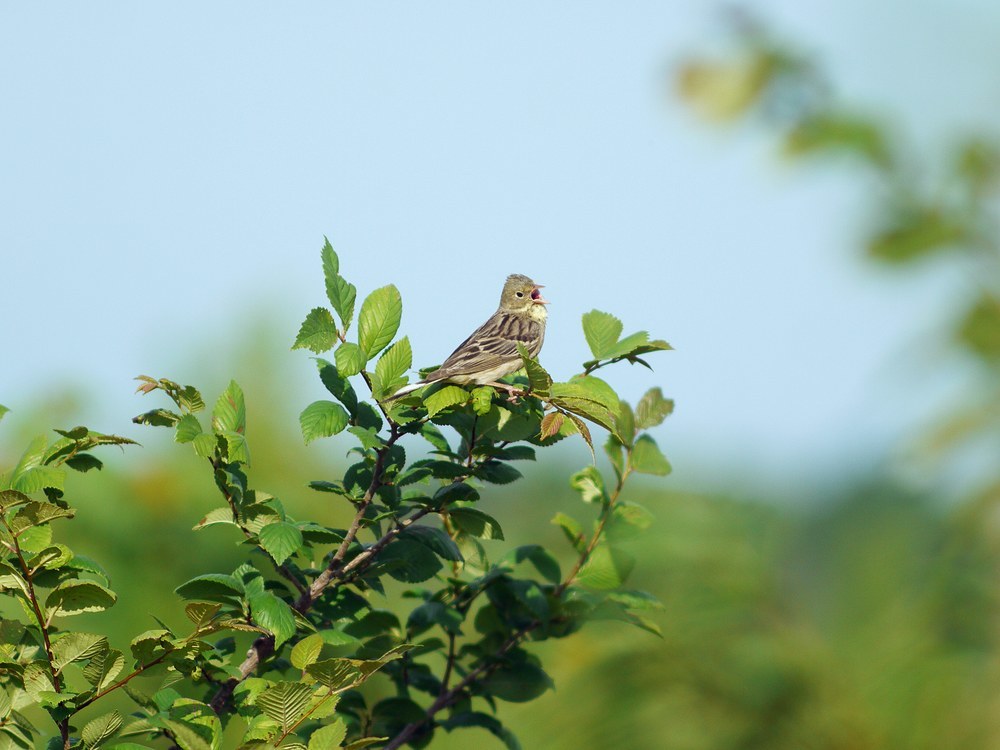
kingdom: Animalia
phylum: Chordata
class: Aves
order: Passeriformes
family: Emberizidae
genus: Emberiza
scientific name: Emberiza hortulana
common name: Ortolan bunting
